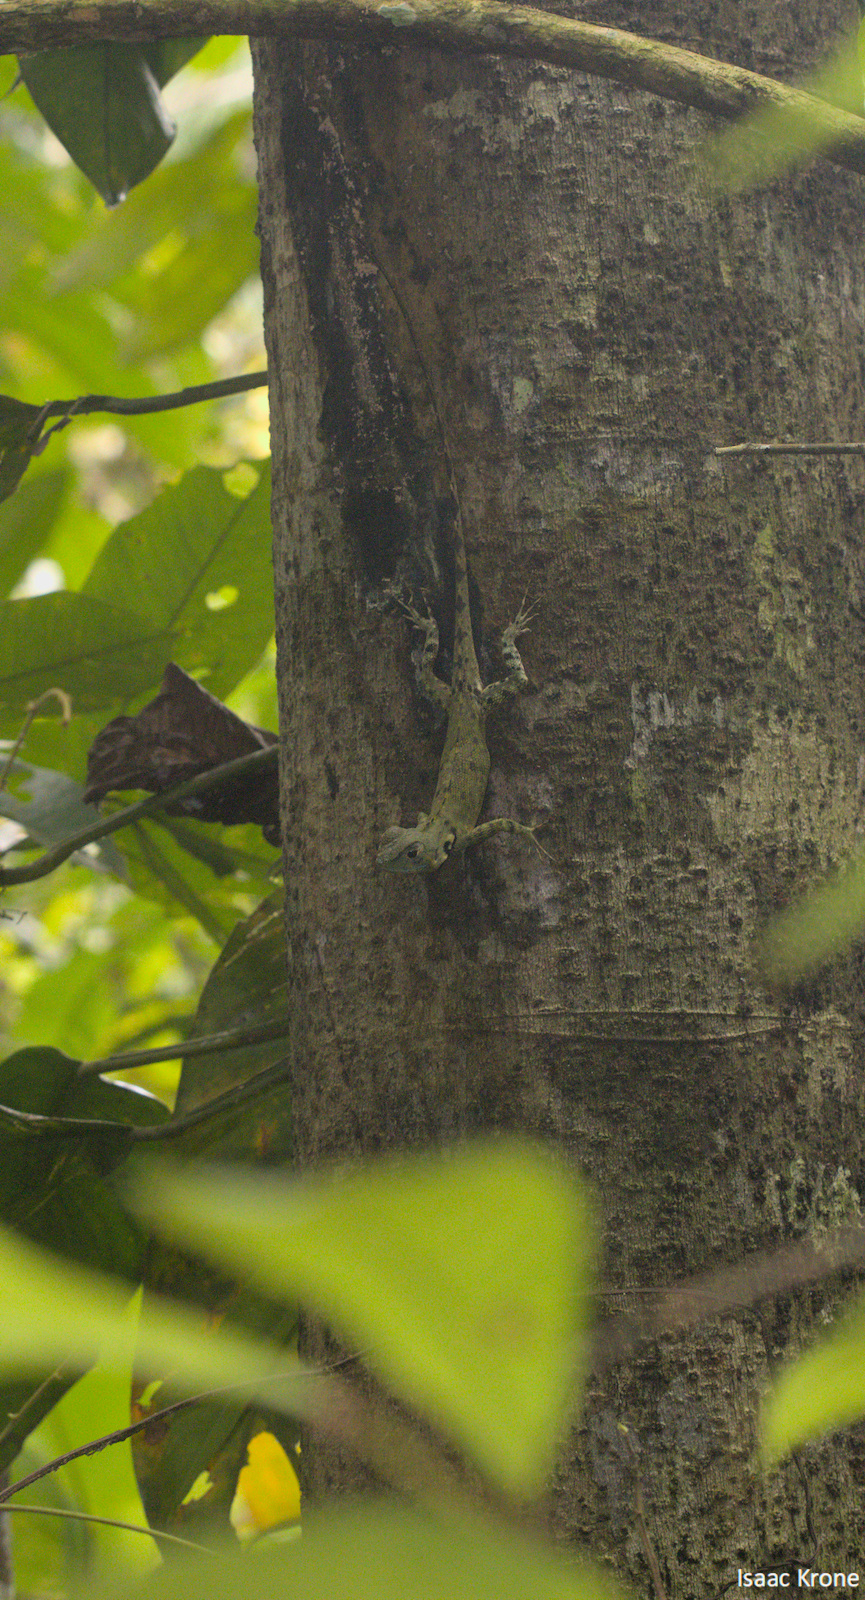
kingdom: Animalia
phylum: Chordata
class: Squamata
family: Tropiduridae
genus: Plica
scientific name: Plica umbra
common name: Harlequin racerunner
